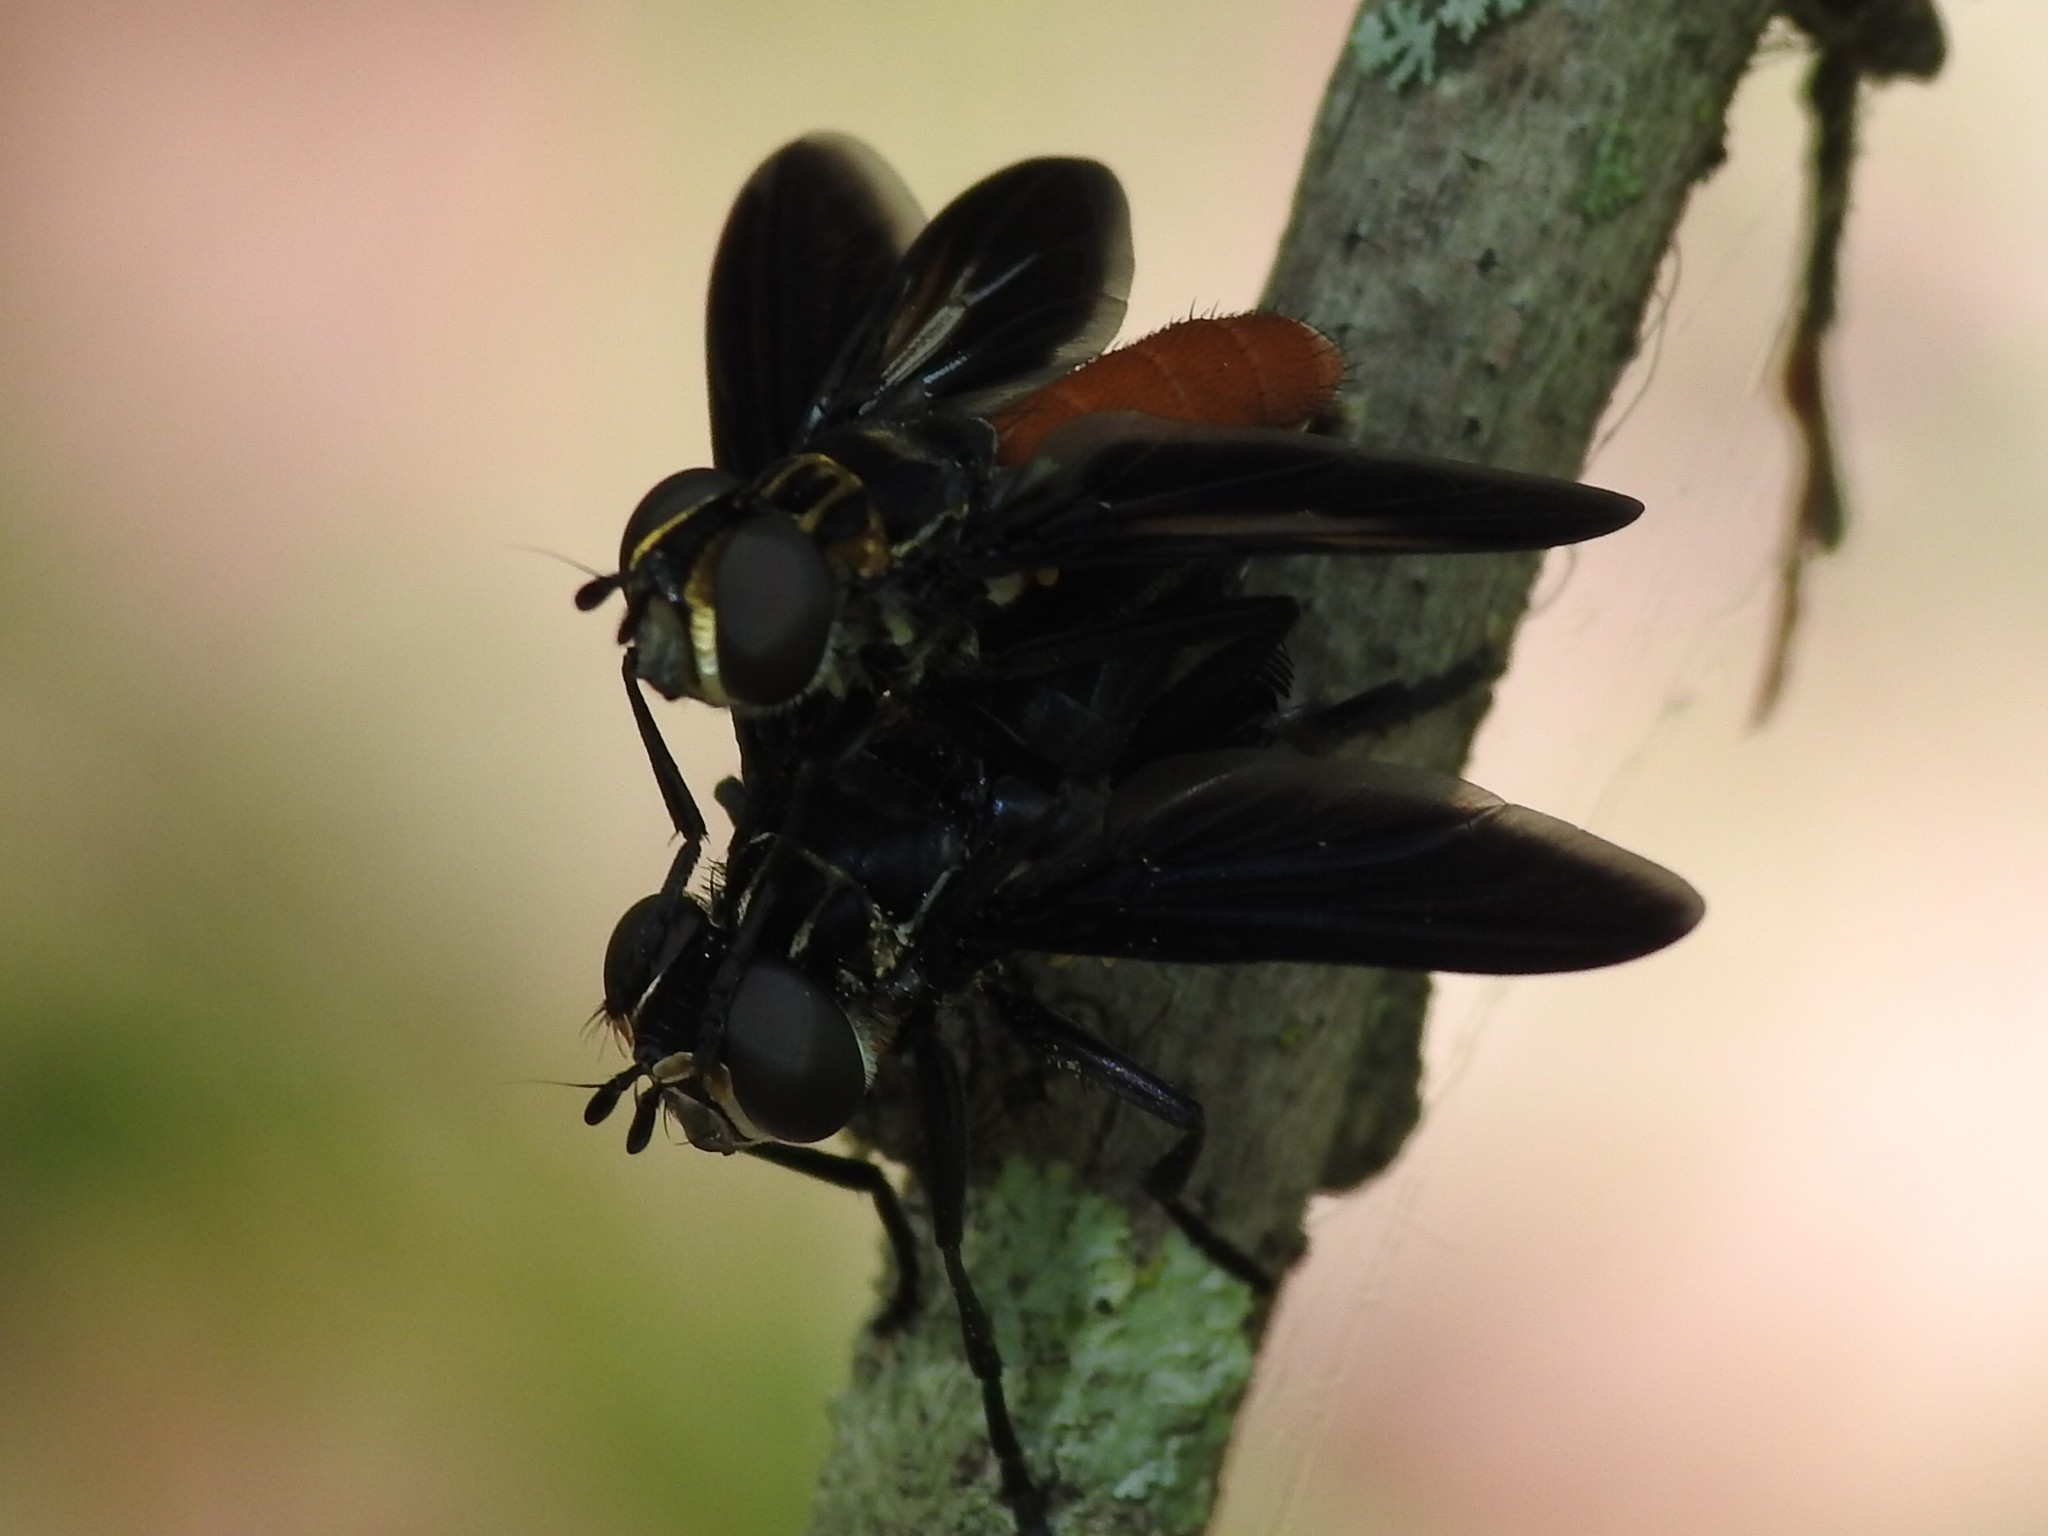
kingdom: Animalia
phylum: Arthropoda
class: Insecta
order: Diptera
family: Tachinidae
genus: Trichopoda
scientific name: Trichopoda pennipes
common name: Tachinid fly
